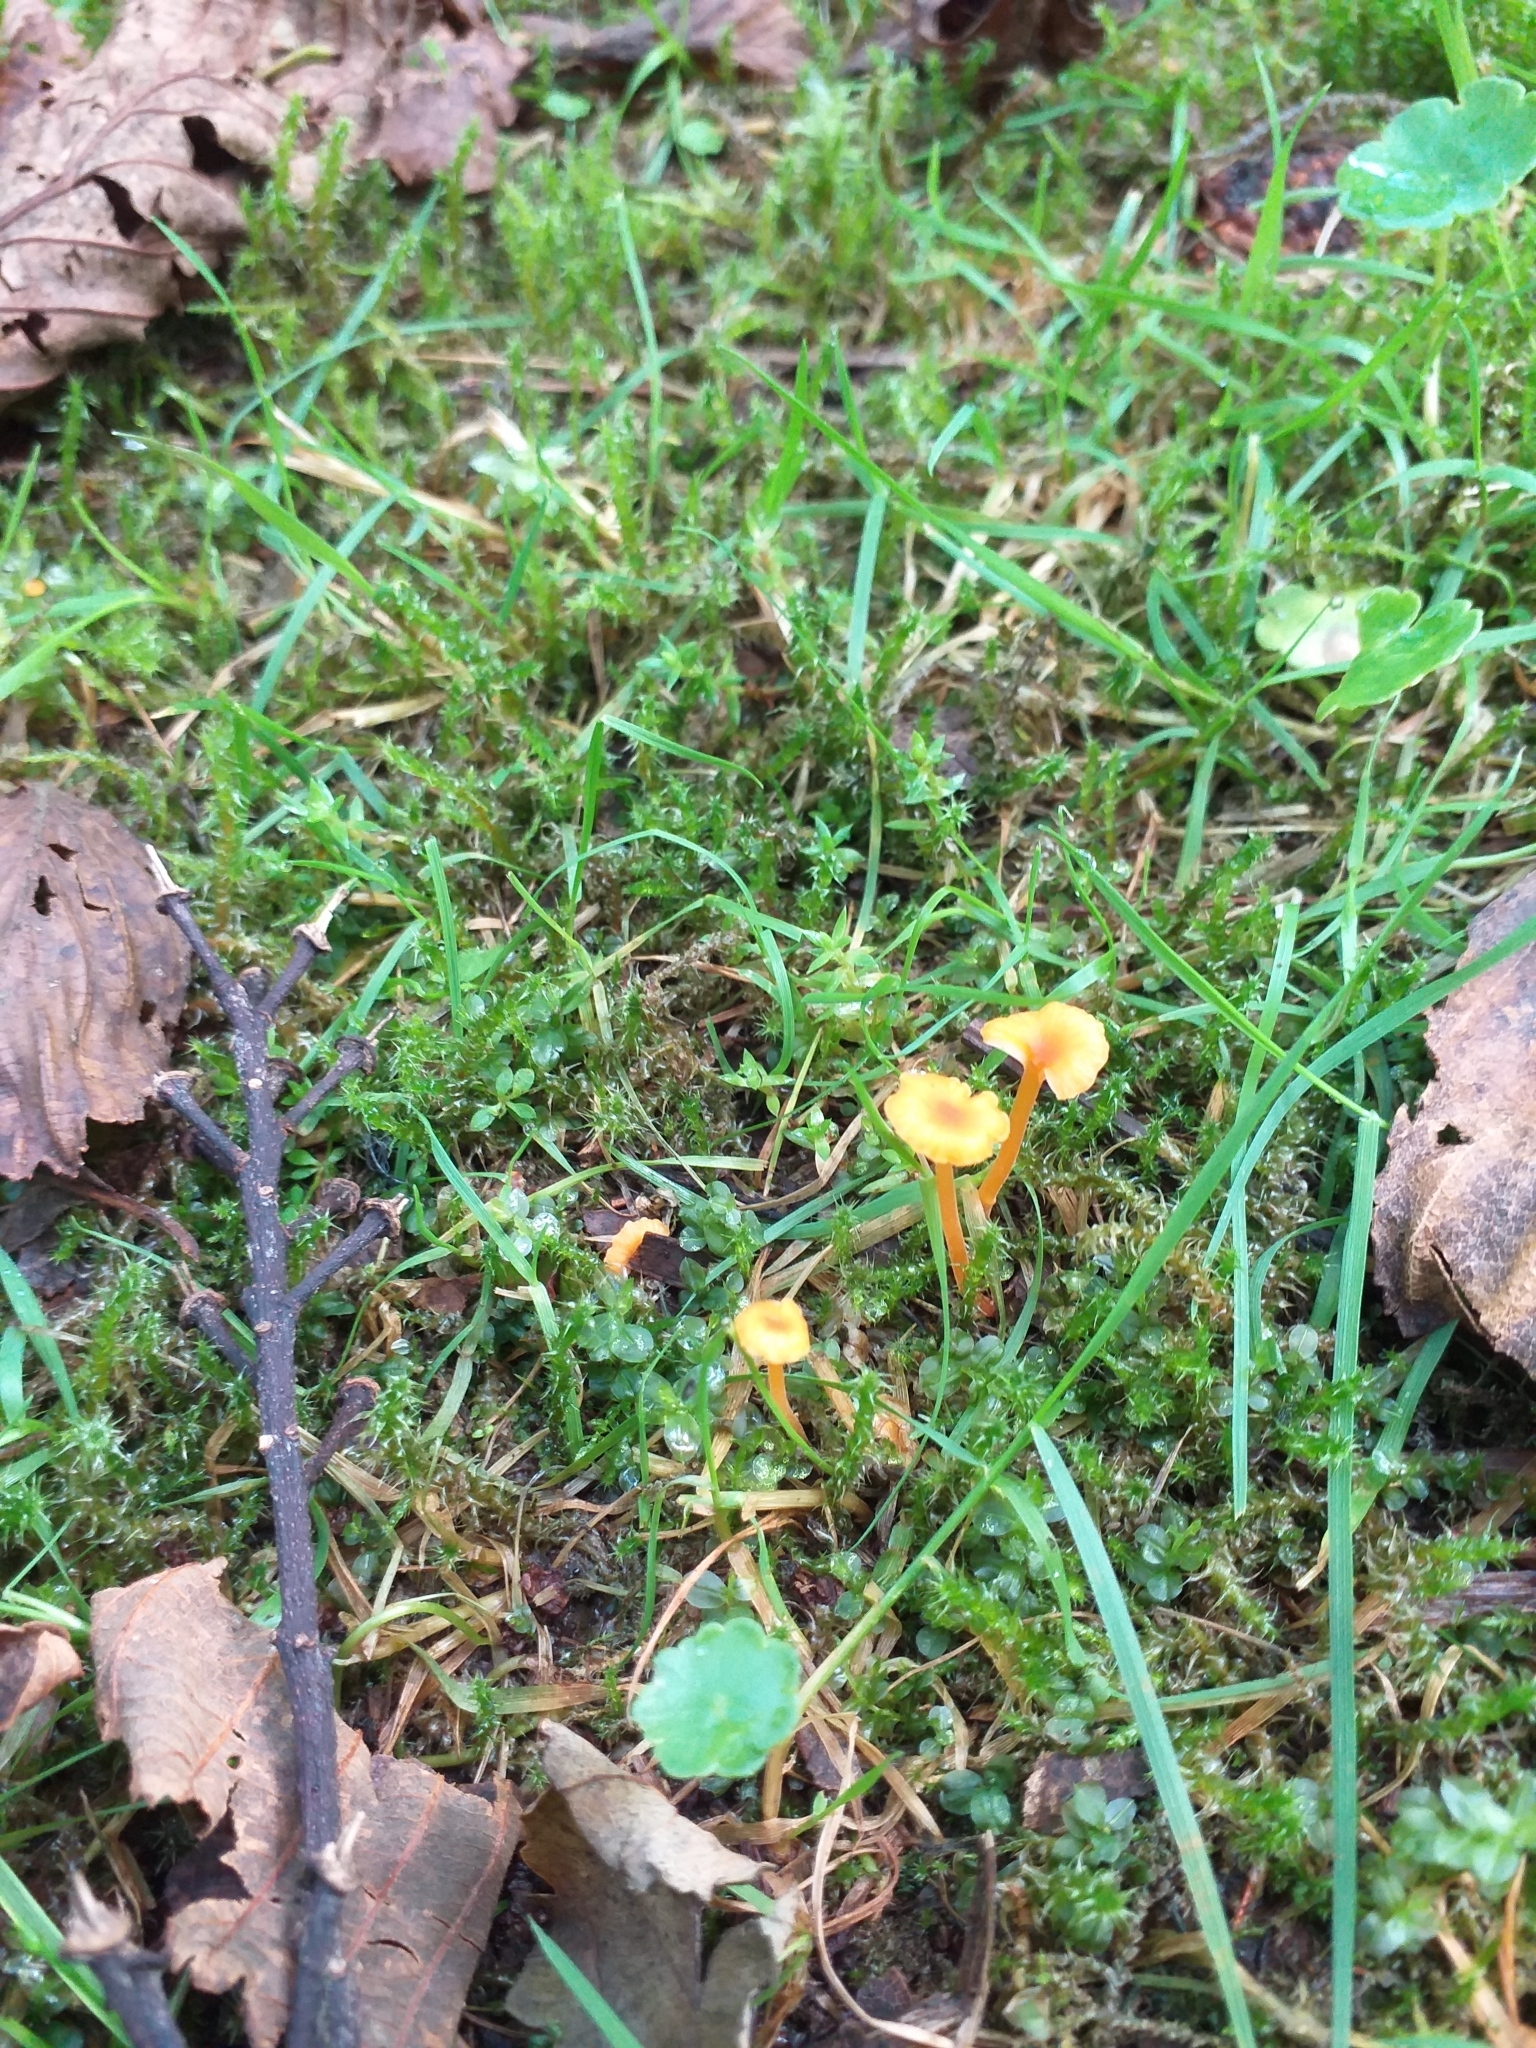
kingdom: Fungi
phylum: Basidiomycota
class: Agaricomycetes
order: Hymenochaetales
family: Rickenellaceae
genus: Rickenella
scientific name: Rickenella fibula
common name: Orange mosscap
